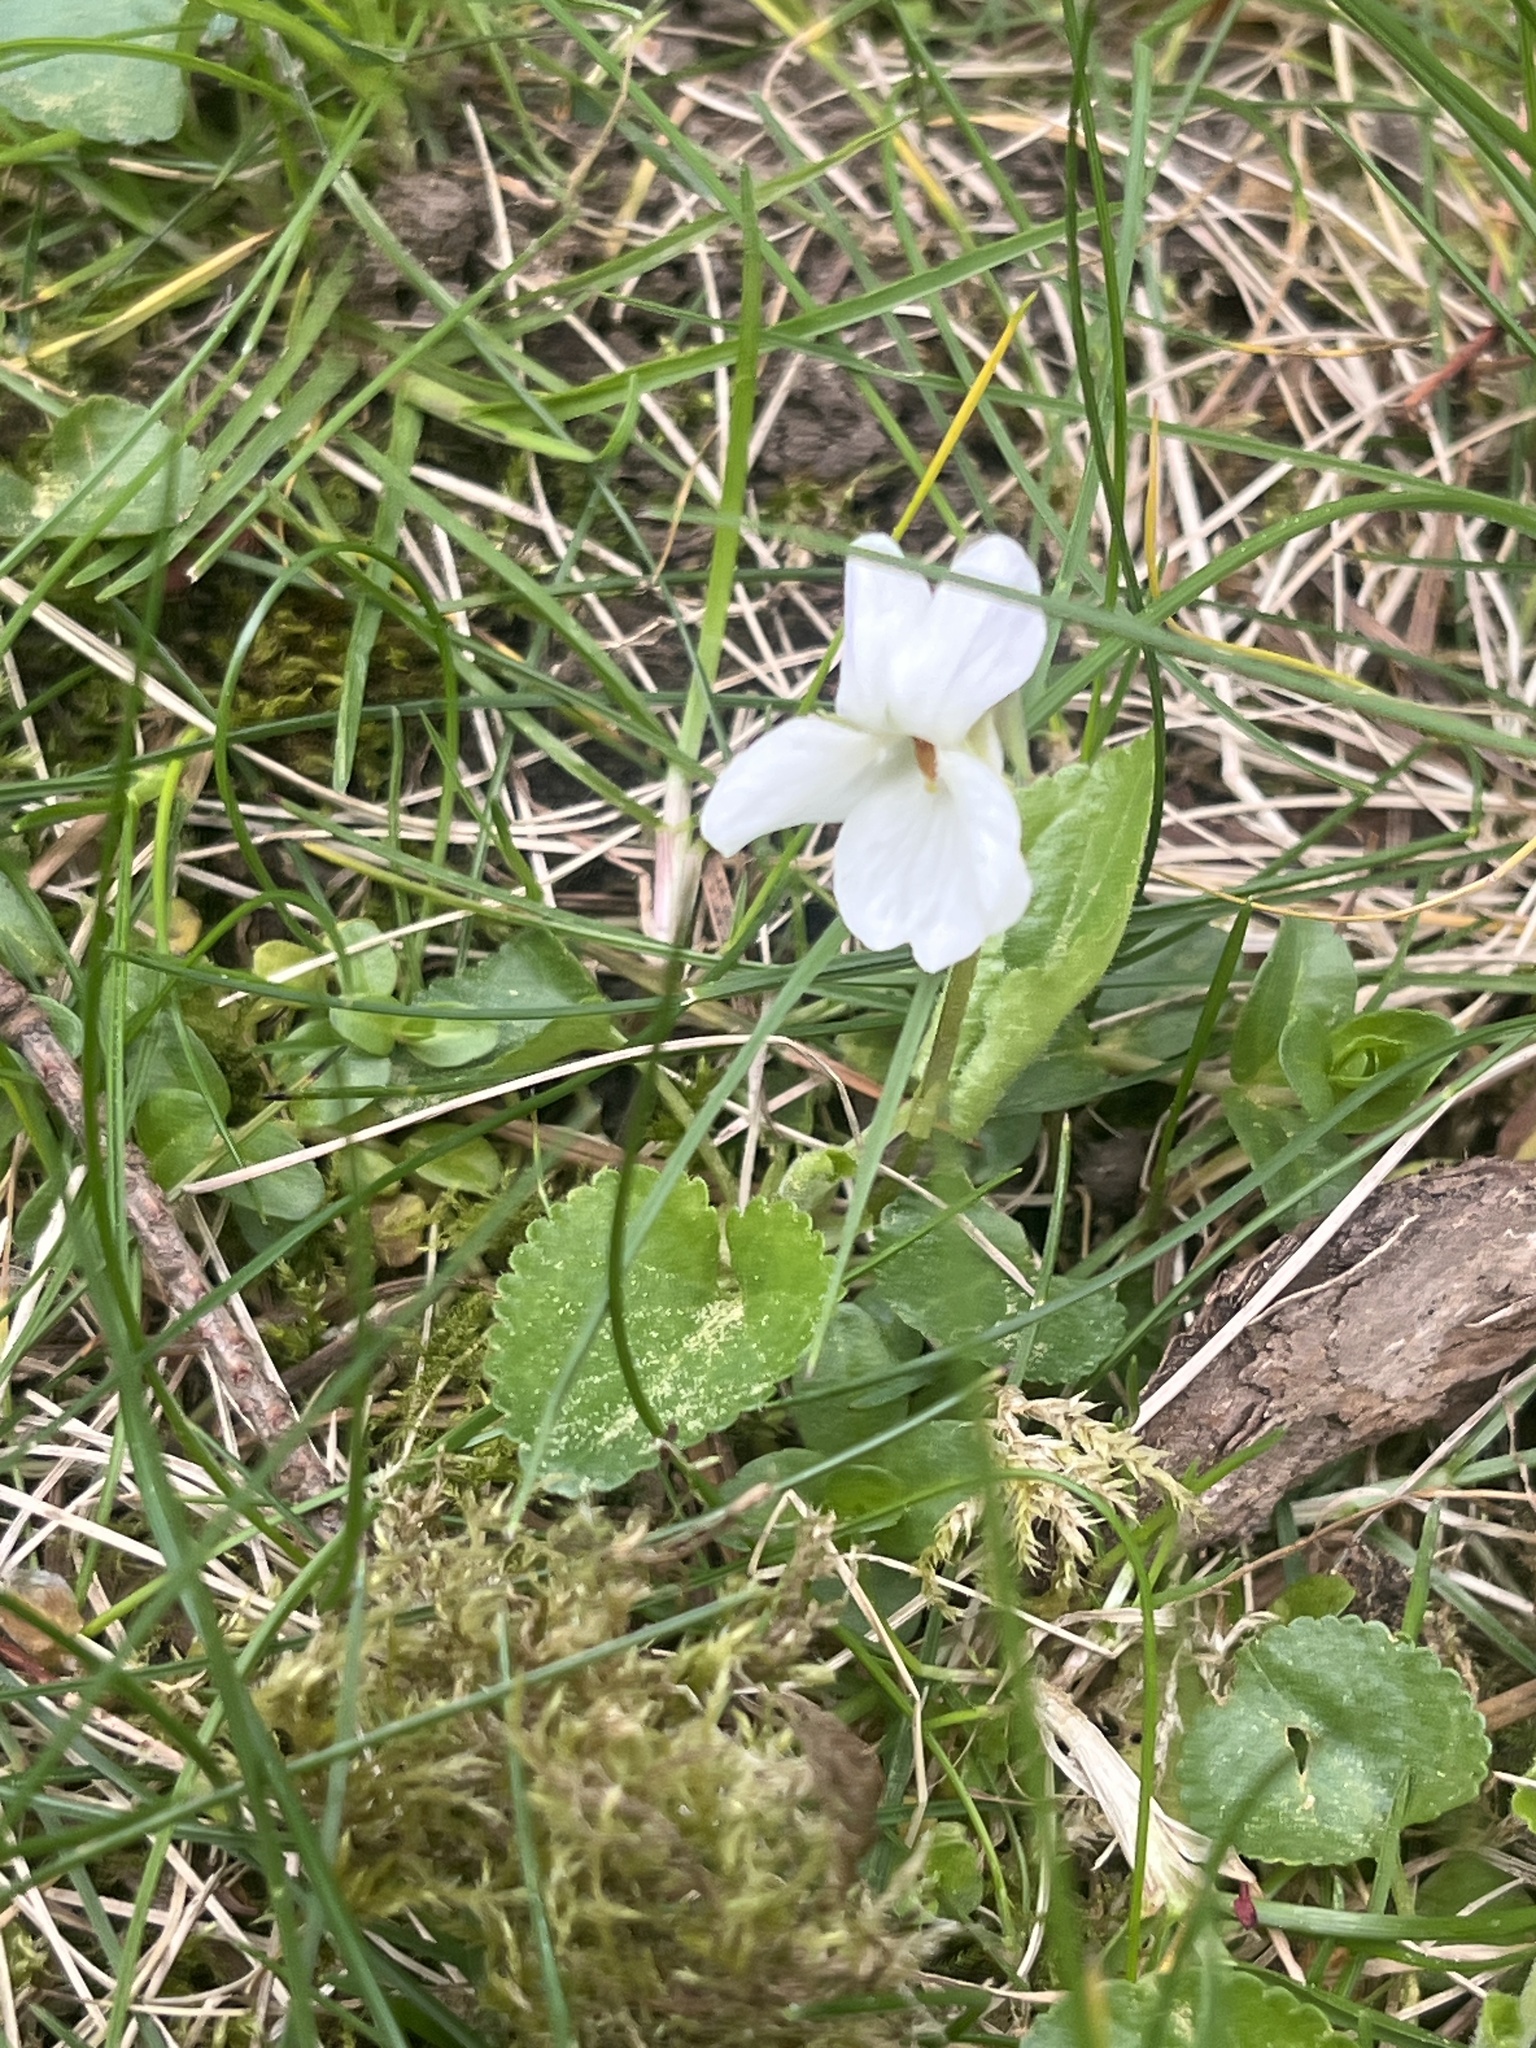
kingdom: Plantae
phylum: Tracheophyta
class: Magnoliopsida
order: Malpighiales
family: Violaceae
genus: Viola
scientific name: Viola odorata
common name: Sweet violet
